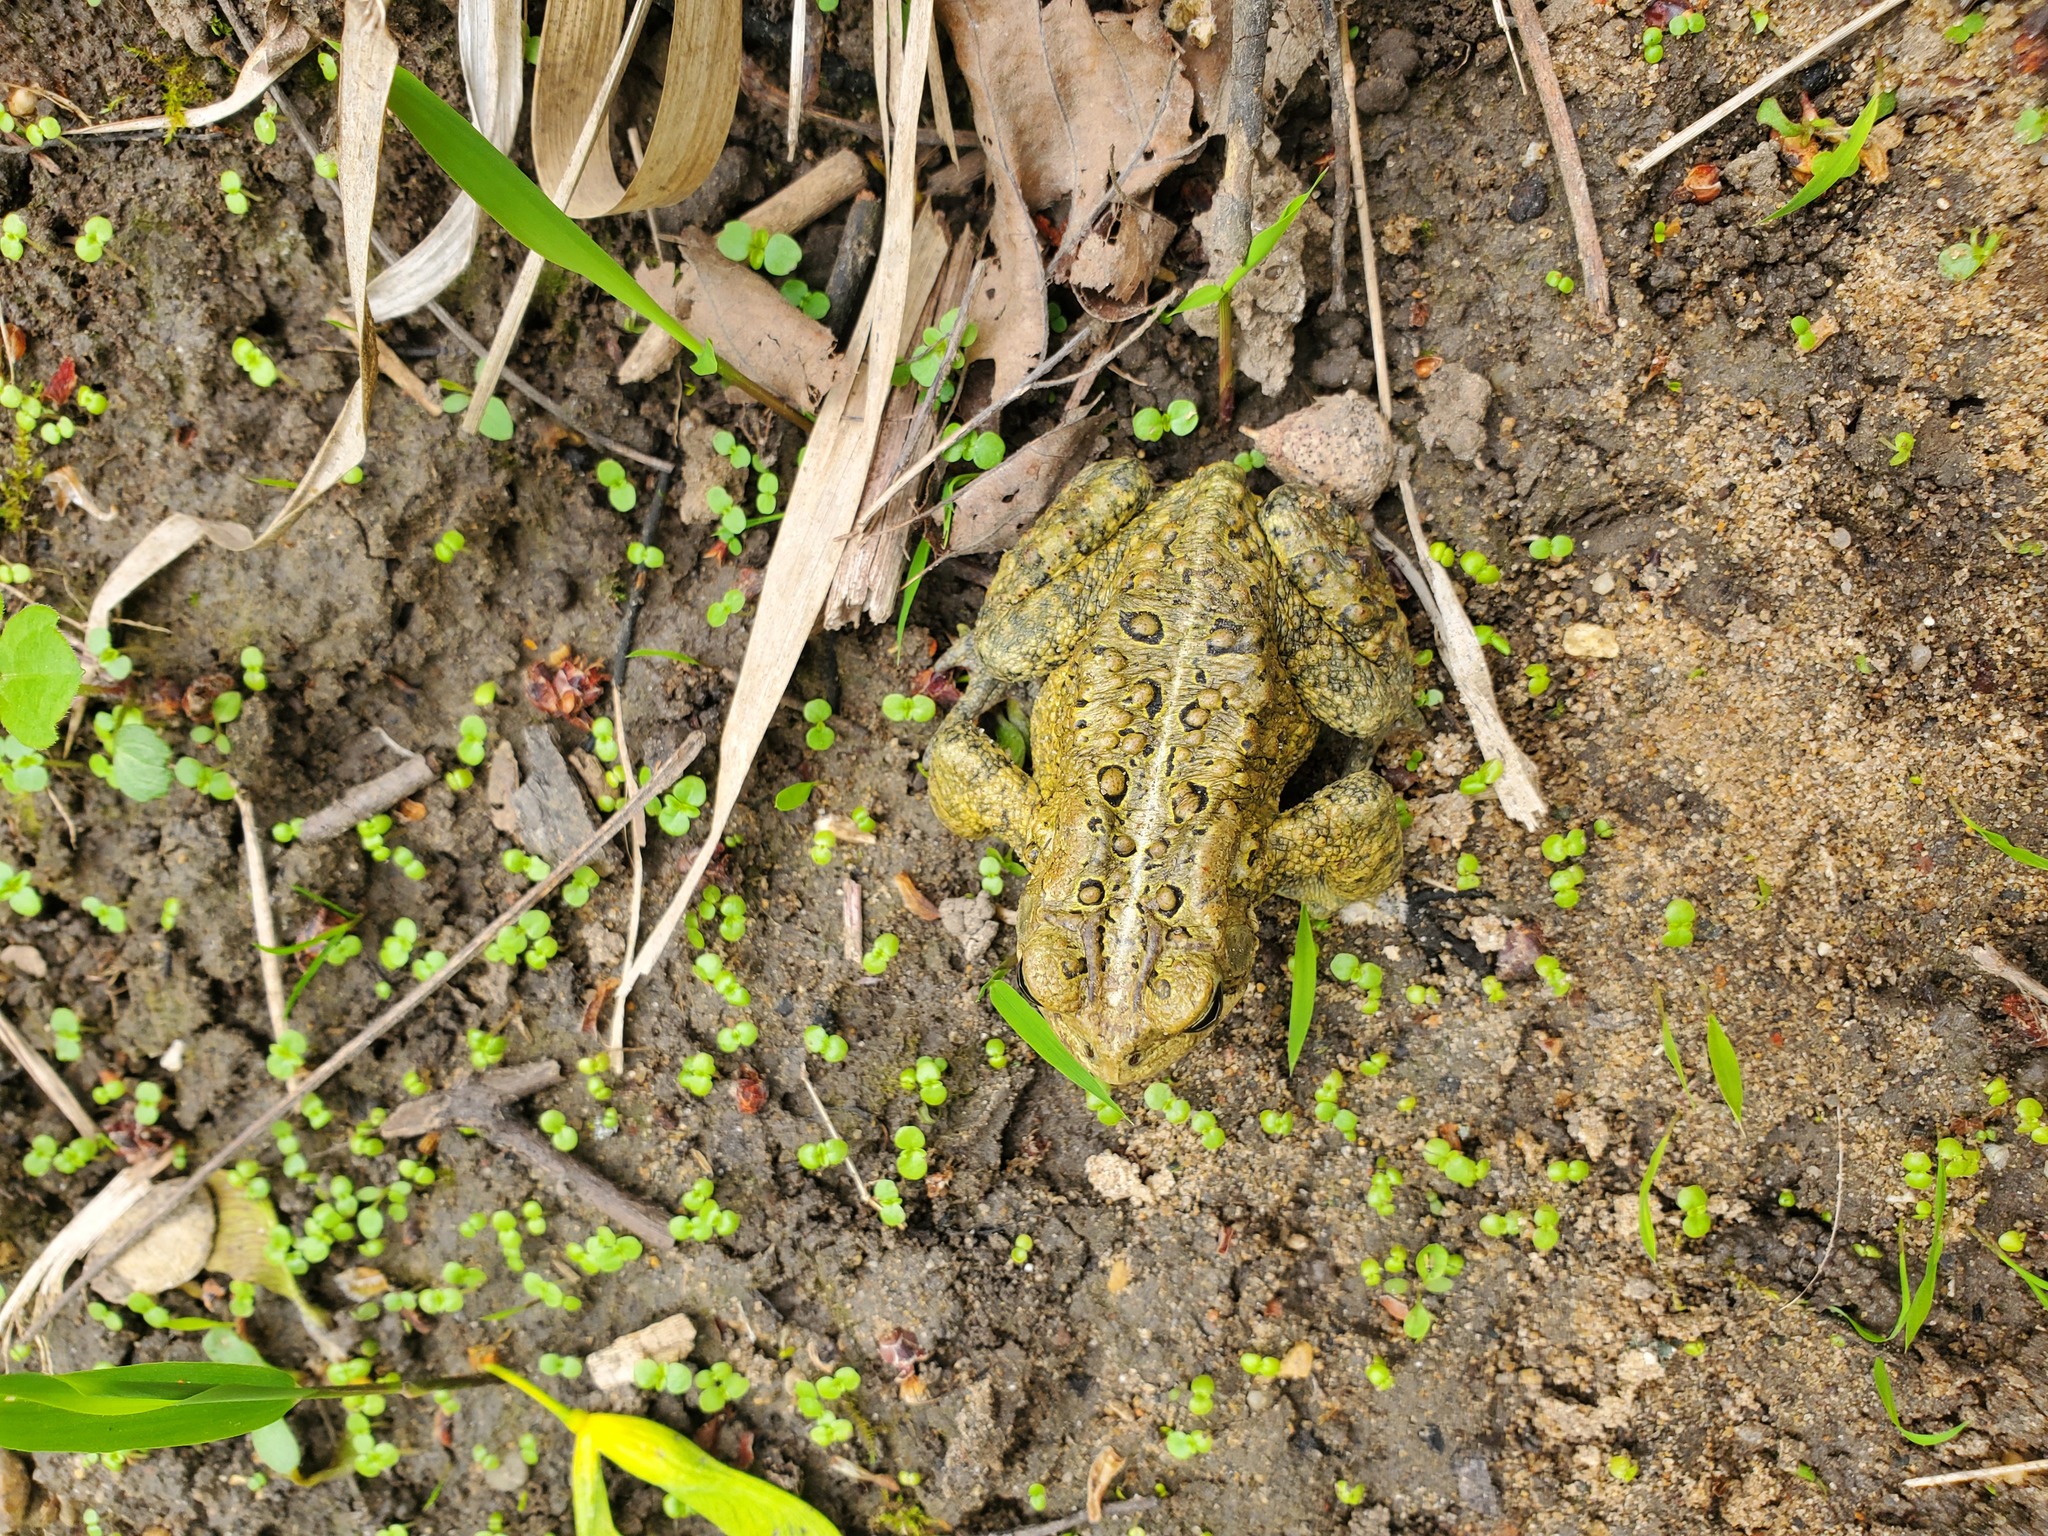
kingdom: Animalia
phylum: Chordata
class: Amphibia
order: Anura
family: Bufonidae
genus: Anaxyrus
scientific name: Anaxyrus americanus
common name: American toad
